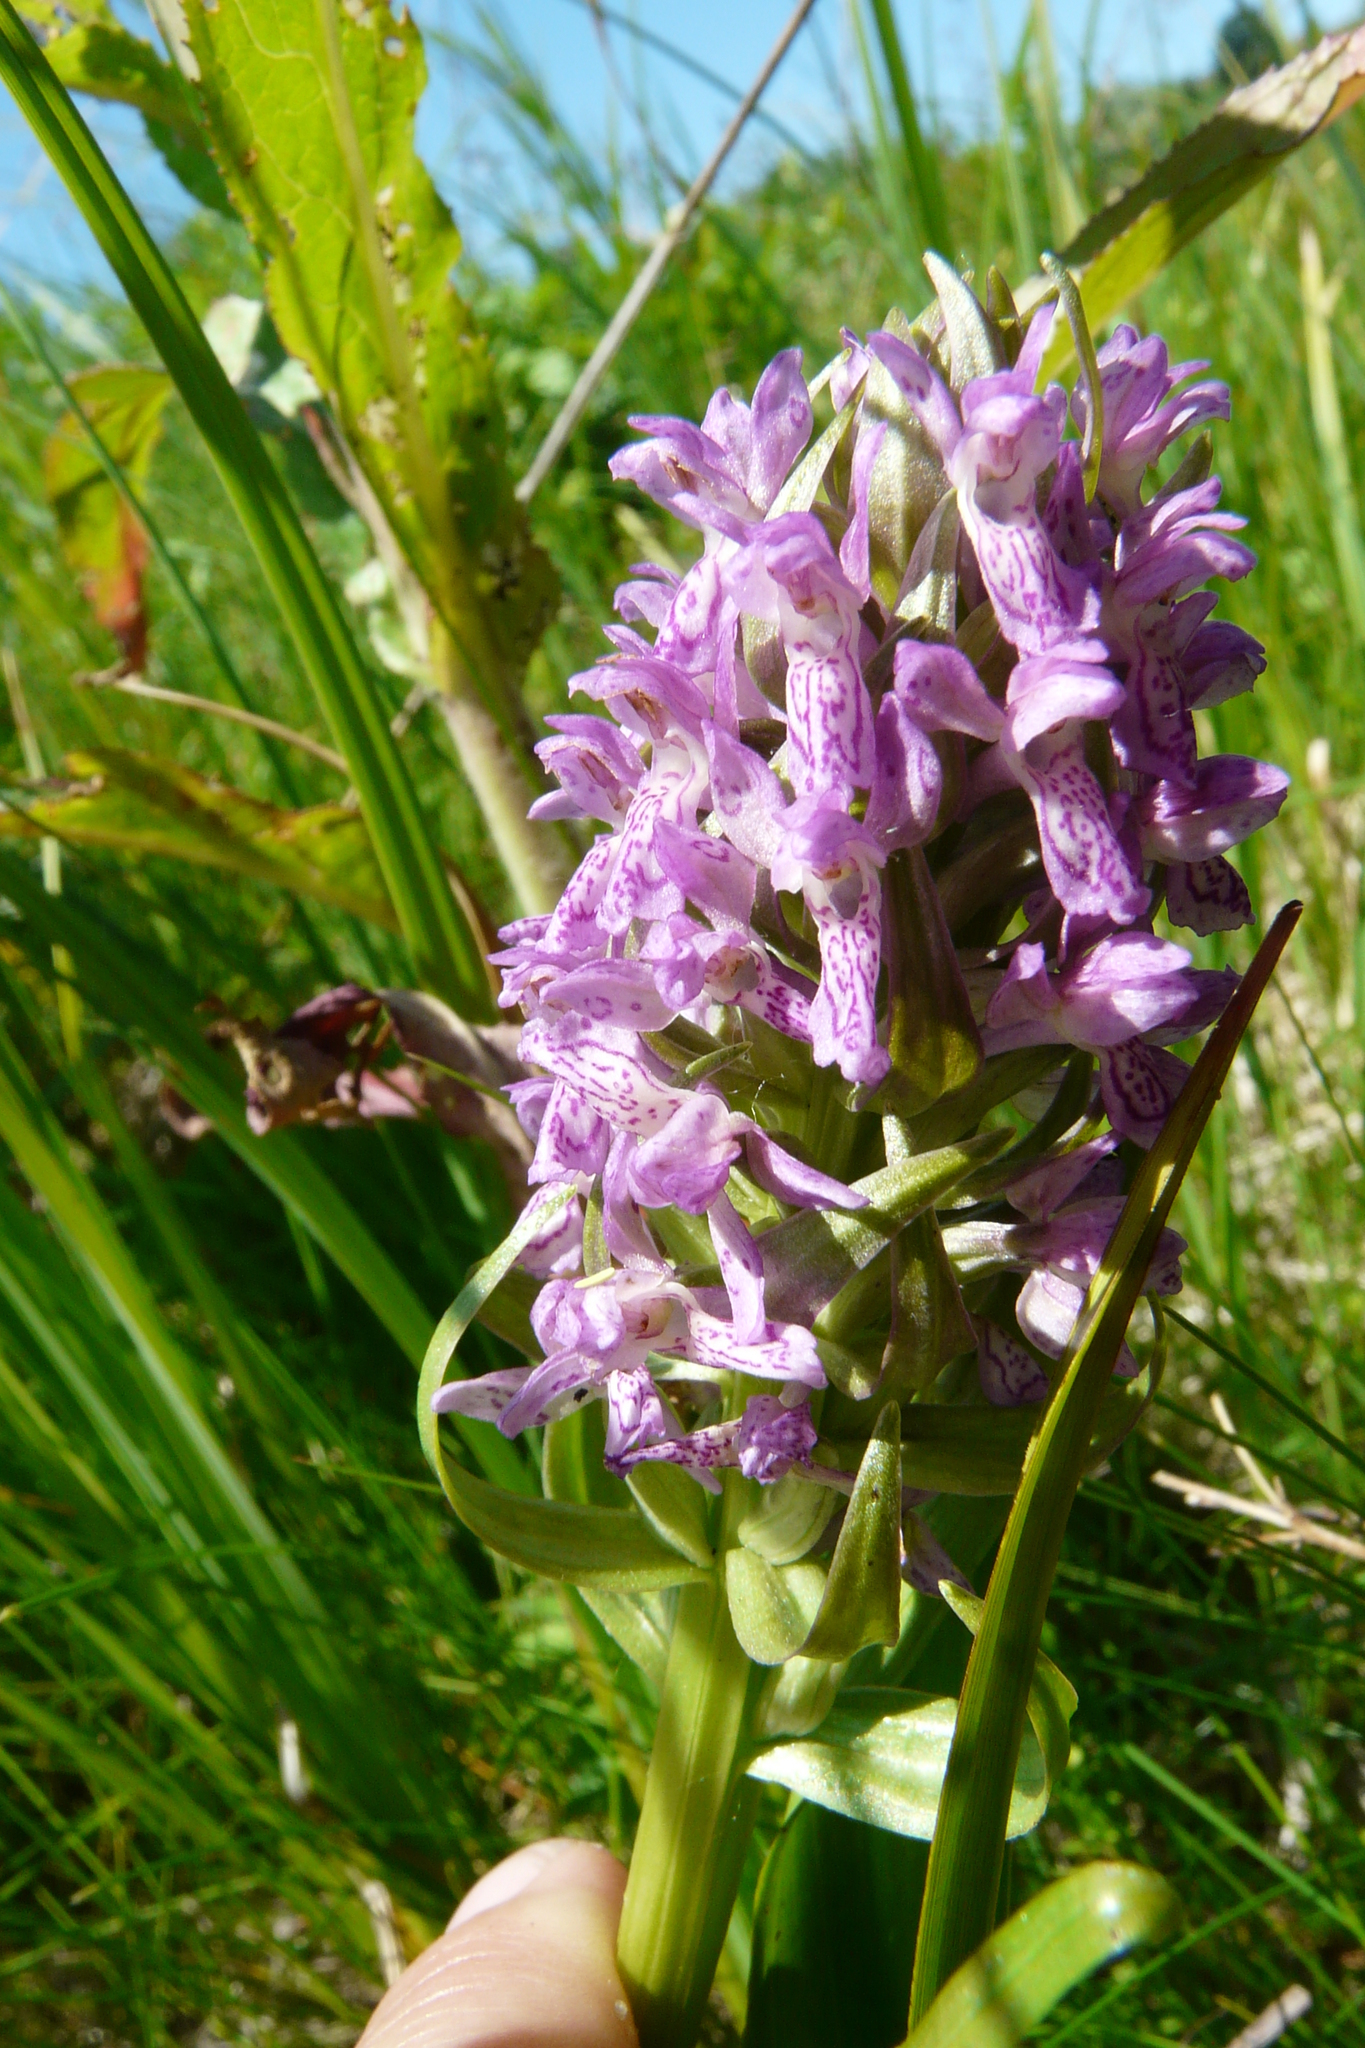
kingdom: Plantae
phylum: Tracheophyta
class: Liliopsida
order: Asparagales
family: Orchidaceae
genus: Dactylorhiza
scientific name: Dactylorhiza incarnata
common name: Early marsh-orchid
